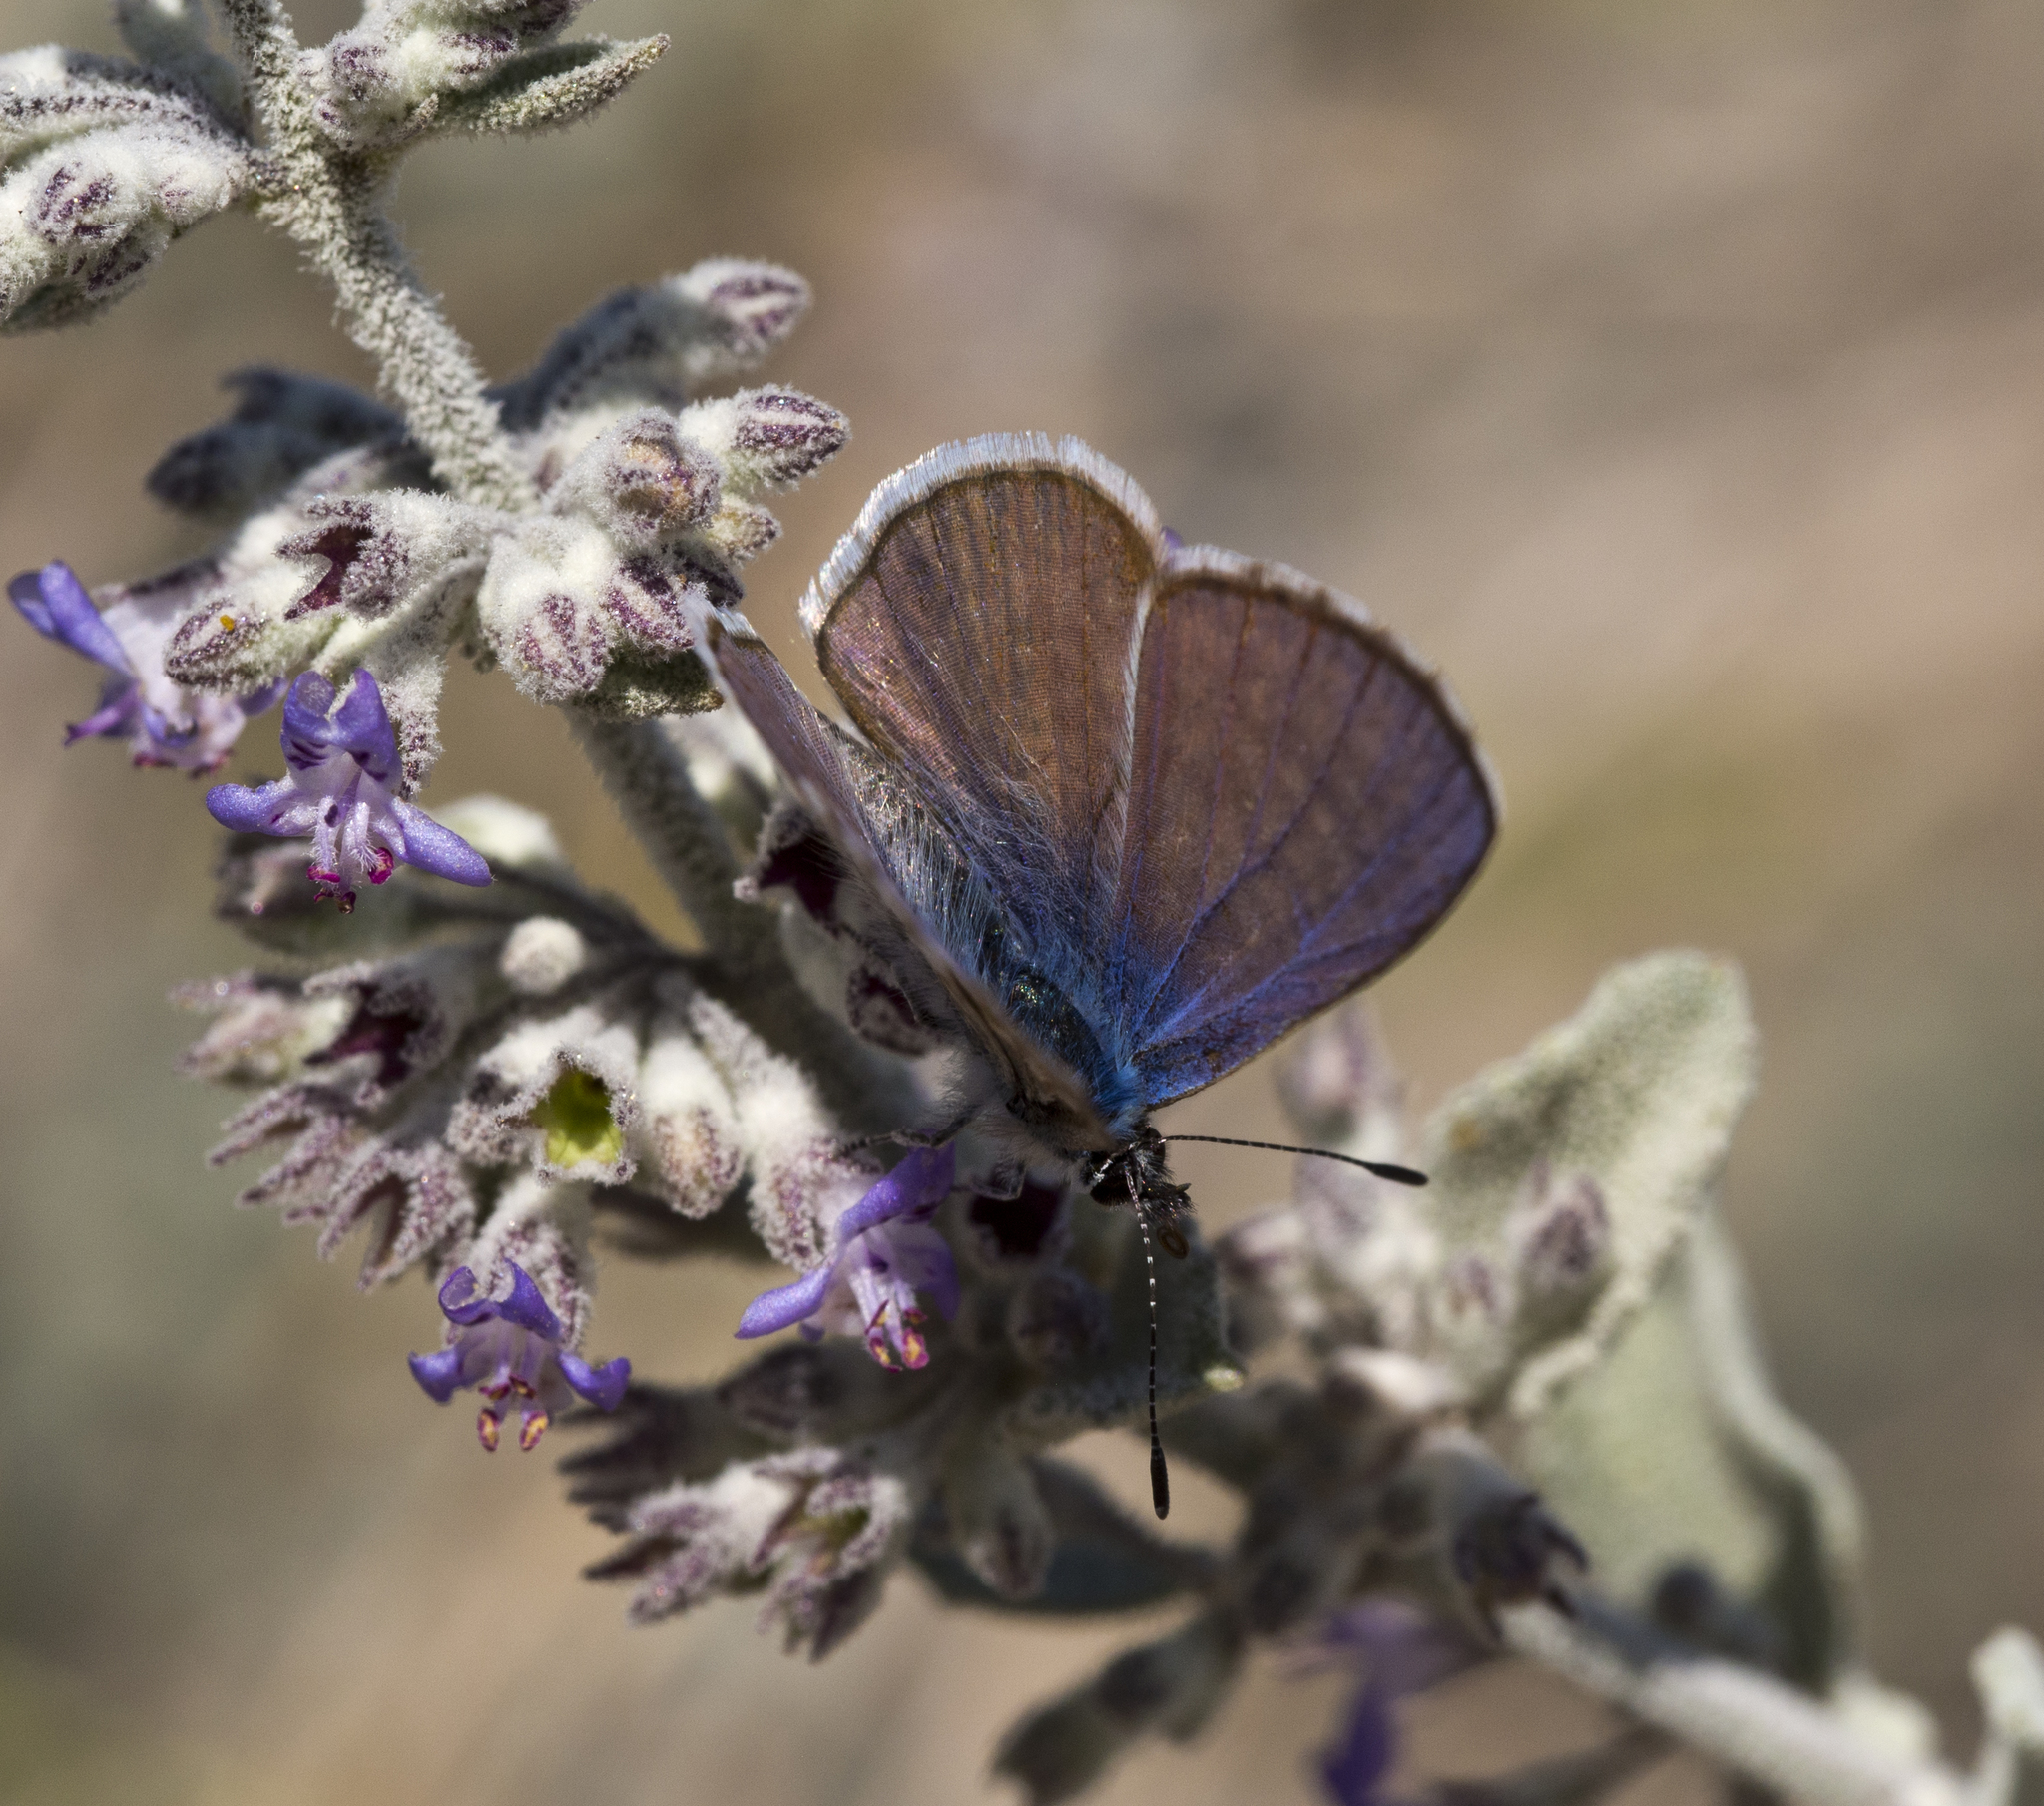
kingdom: Animalia
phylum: Arthropoda
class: Insecta
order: Lepidoptera
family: Lycaenidae
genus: Leptotes
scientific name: Leptotes marina
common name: Marine blue
